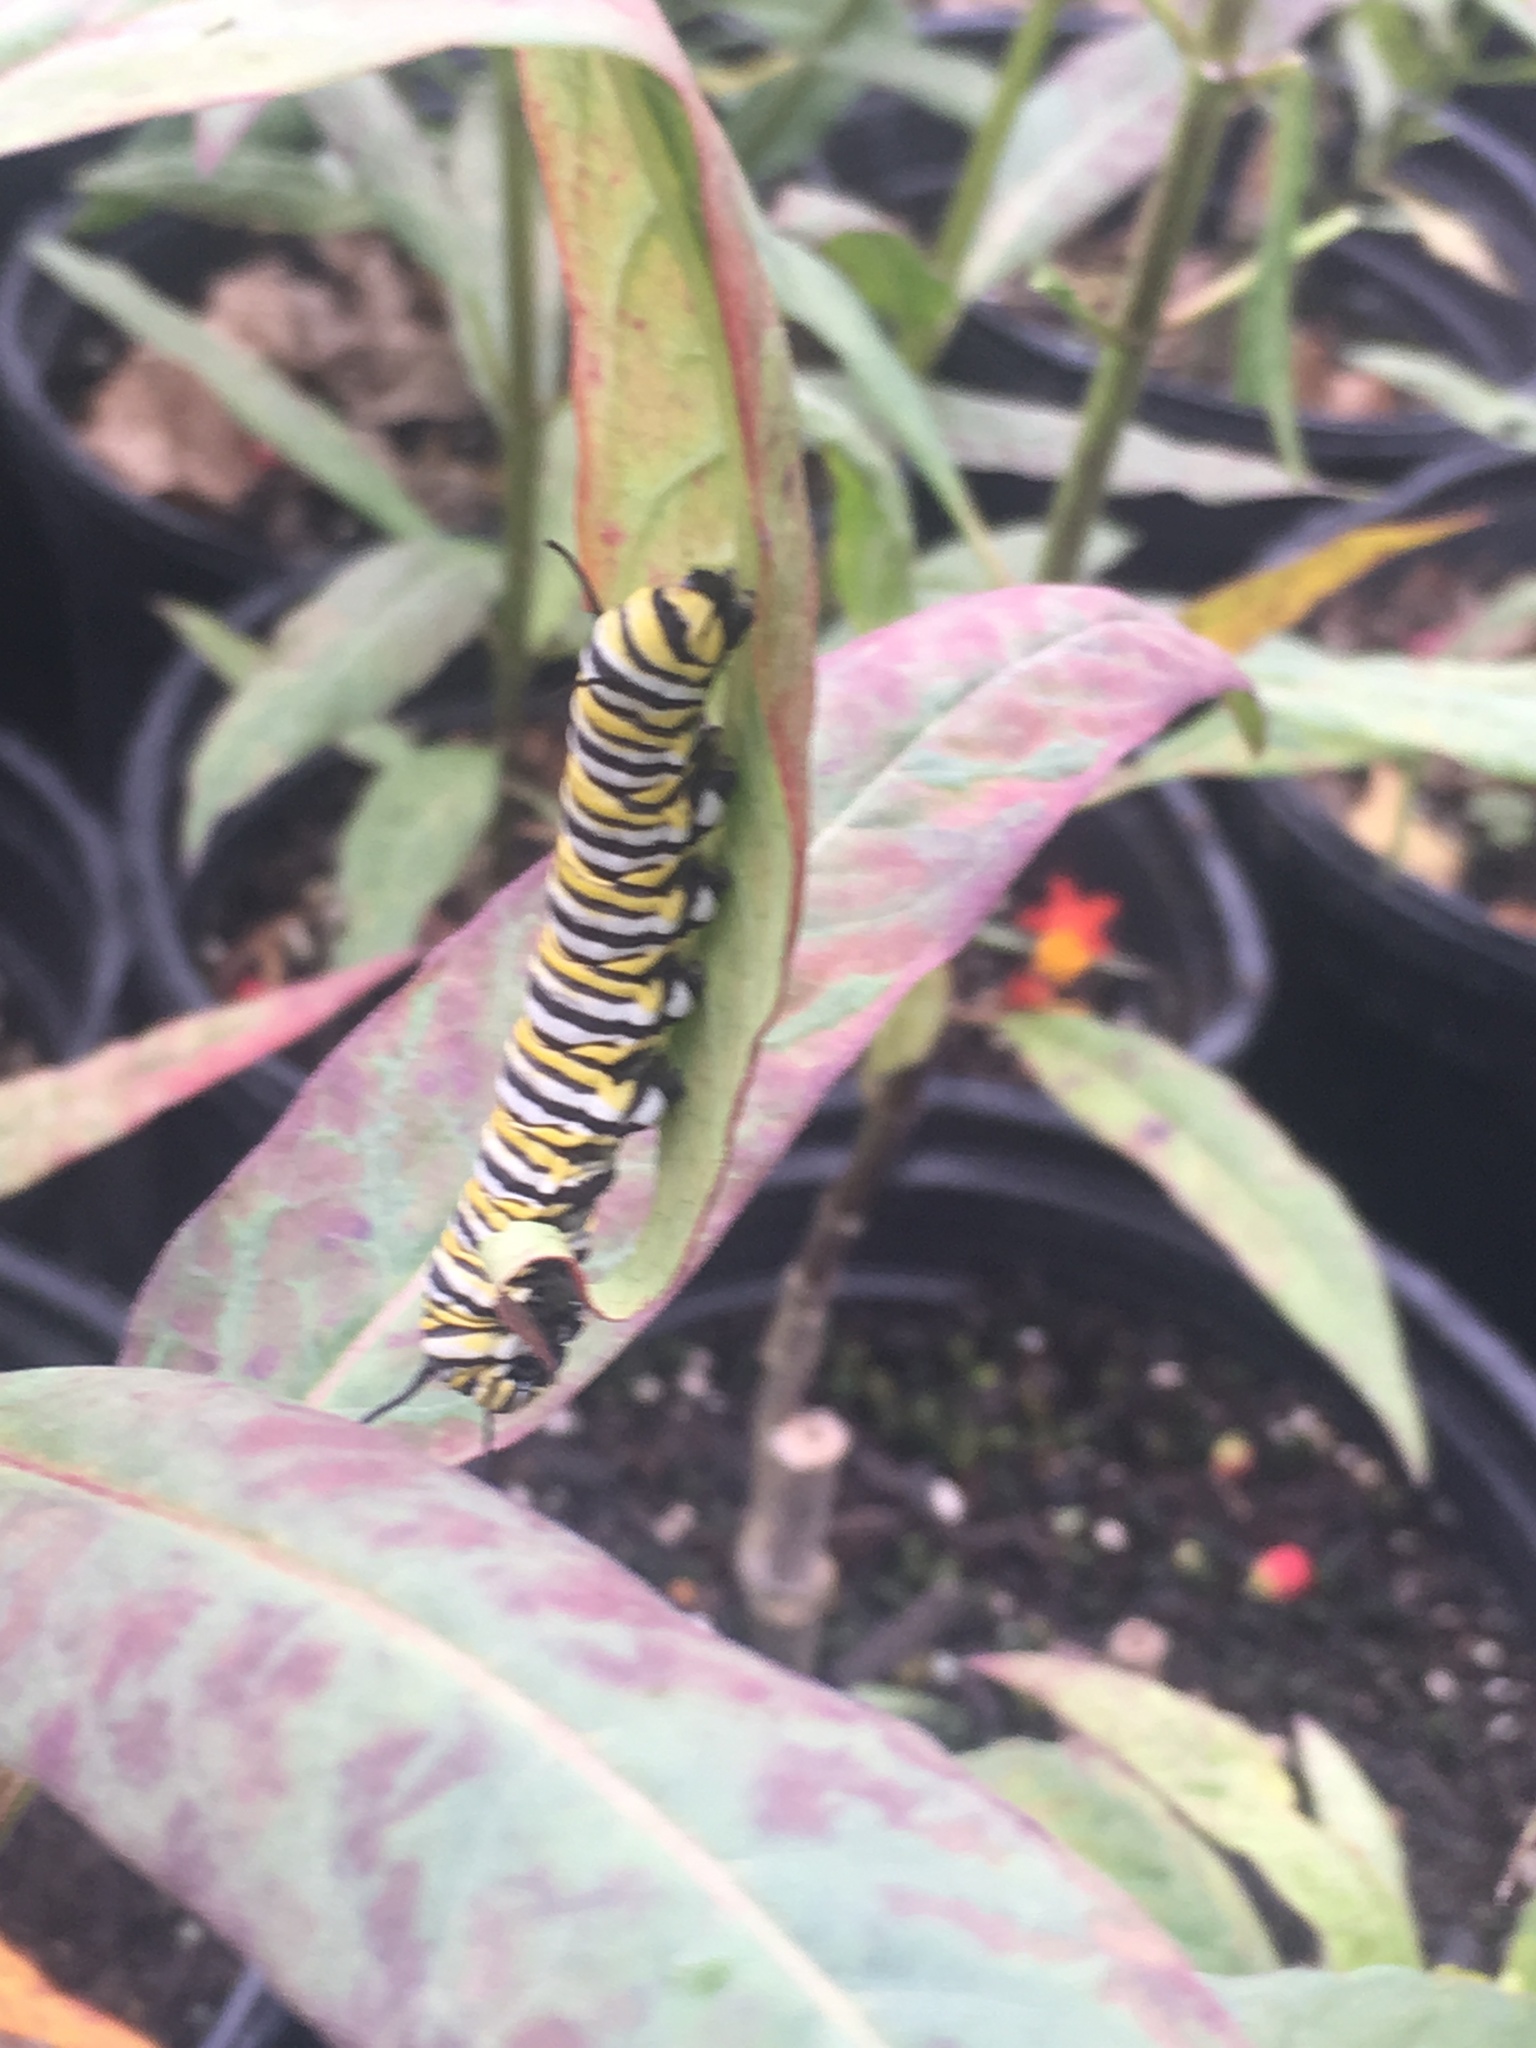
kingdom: Animalia
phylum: Arthropoda
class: Insecta
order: Lepidoptera
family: Nymphalidae
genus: Danaus
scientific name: Danaus plexippus
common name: Monarch
